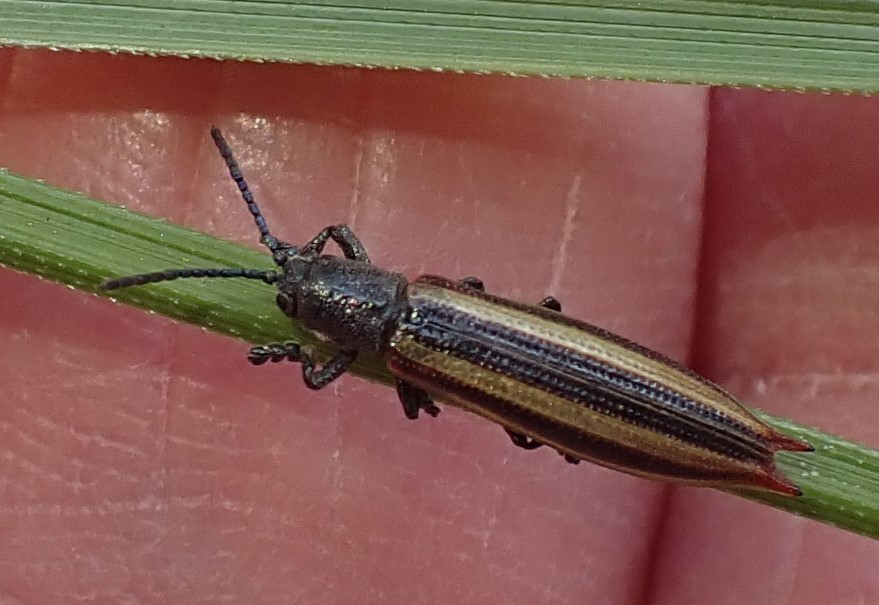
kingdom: Animalia
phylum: Arthropoda
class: Insecta
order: Coleoptera
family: Chrysomelidae
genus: Eurispa
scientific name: Eurispa vittata
